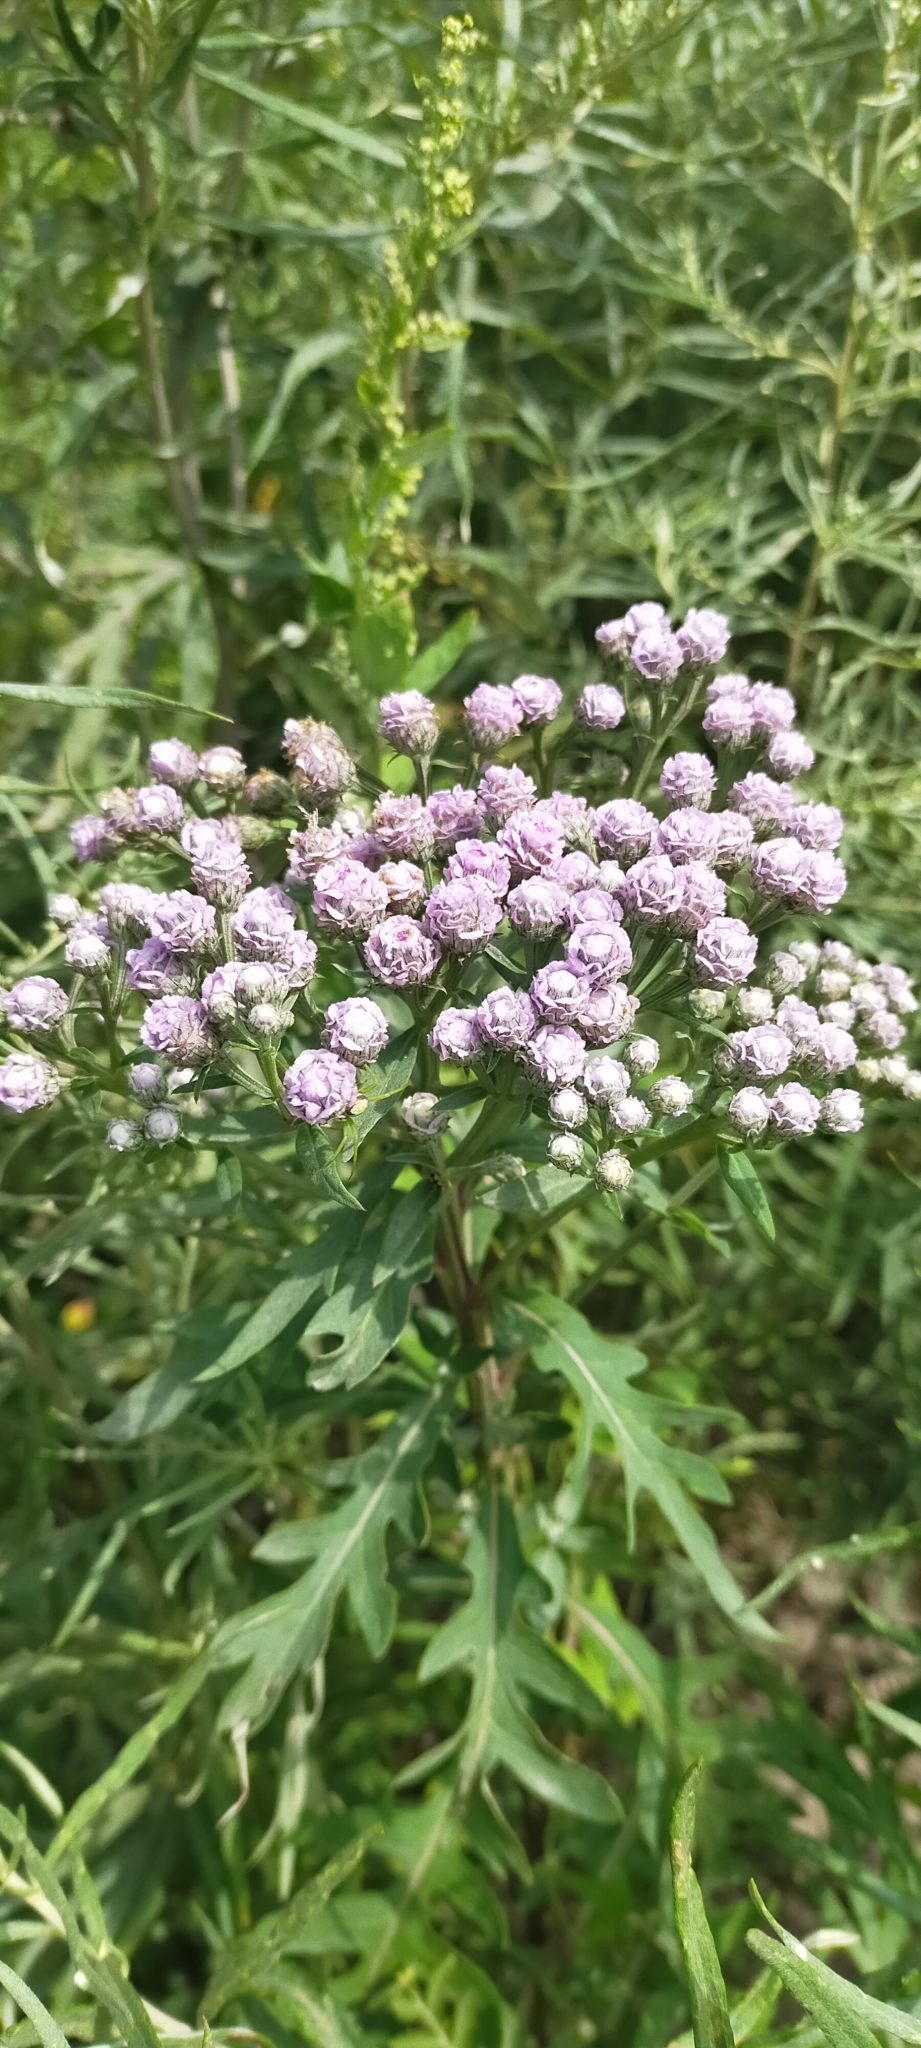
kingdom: Plantae
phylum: Tracheophyta
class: Magnoliopsida
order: Asterales
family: Asteraceae
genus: Saussurea
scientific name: Saussurea pulchella
